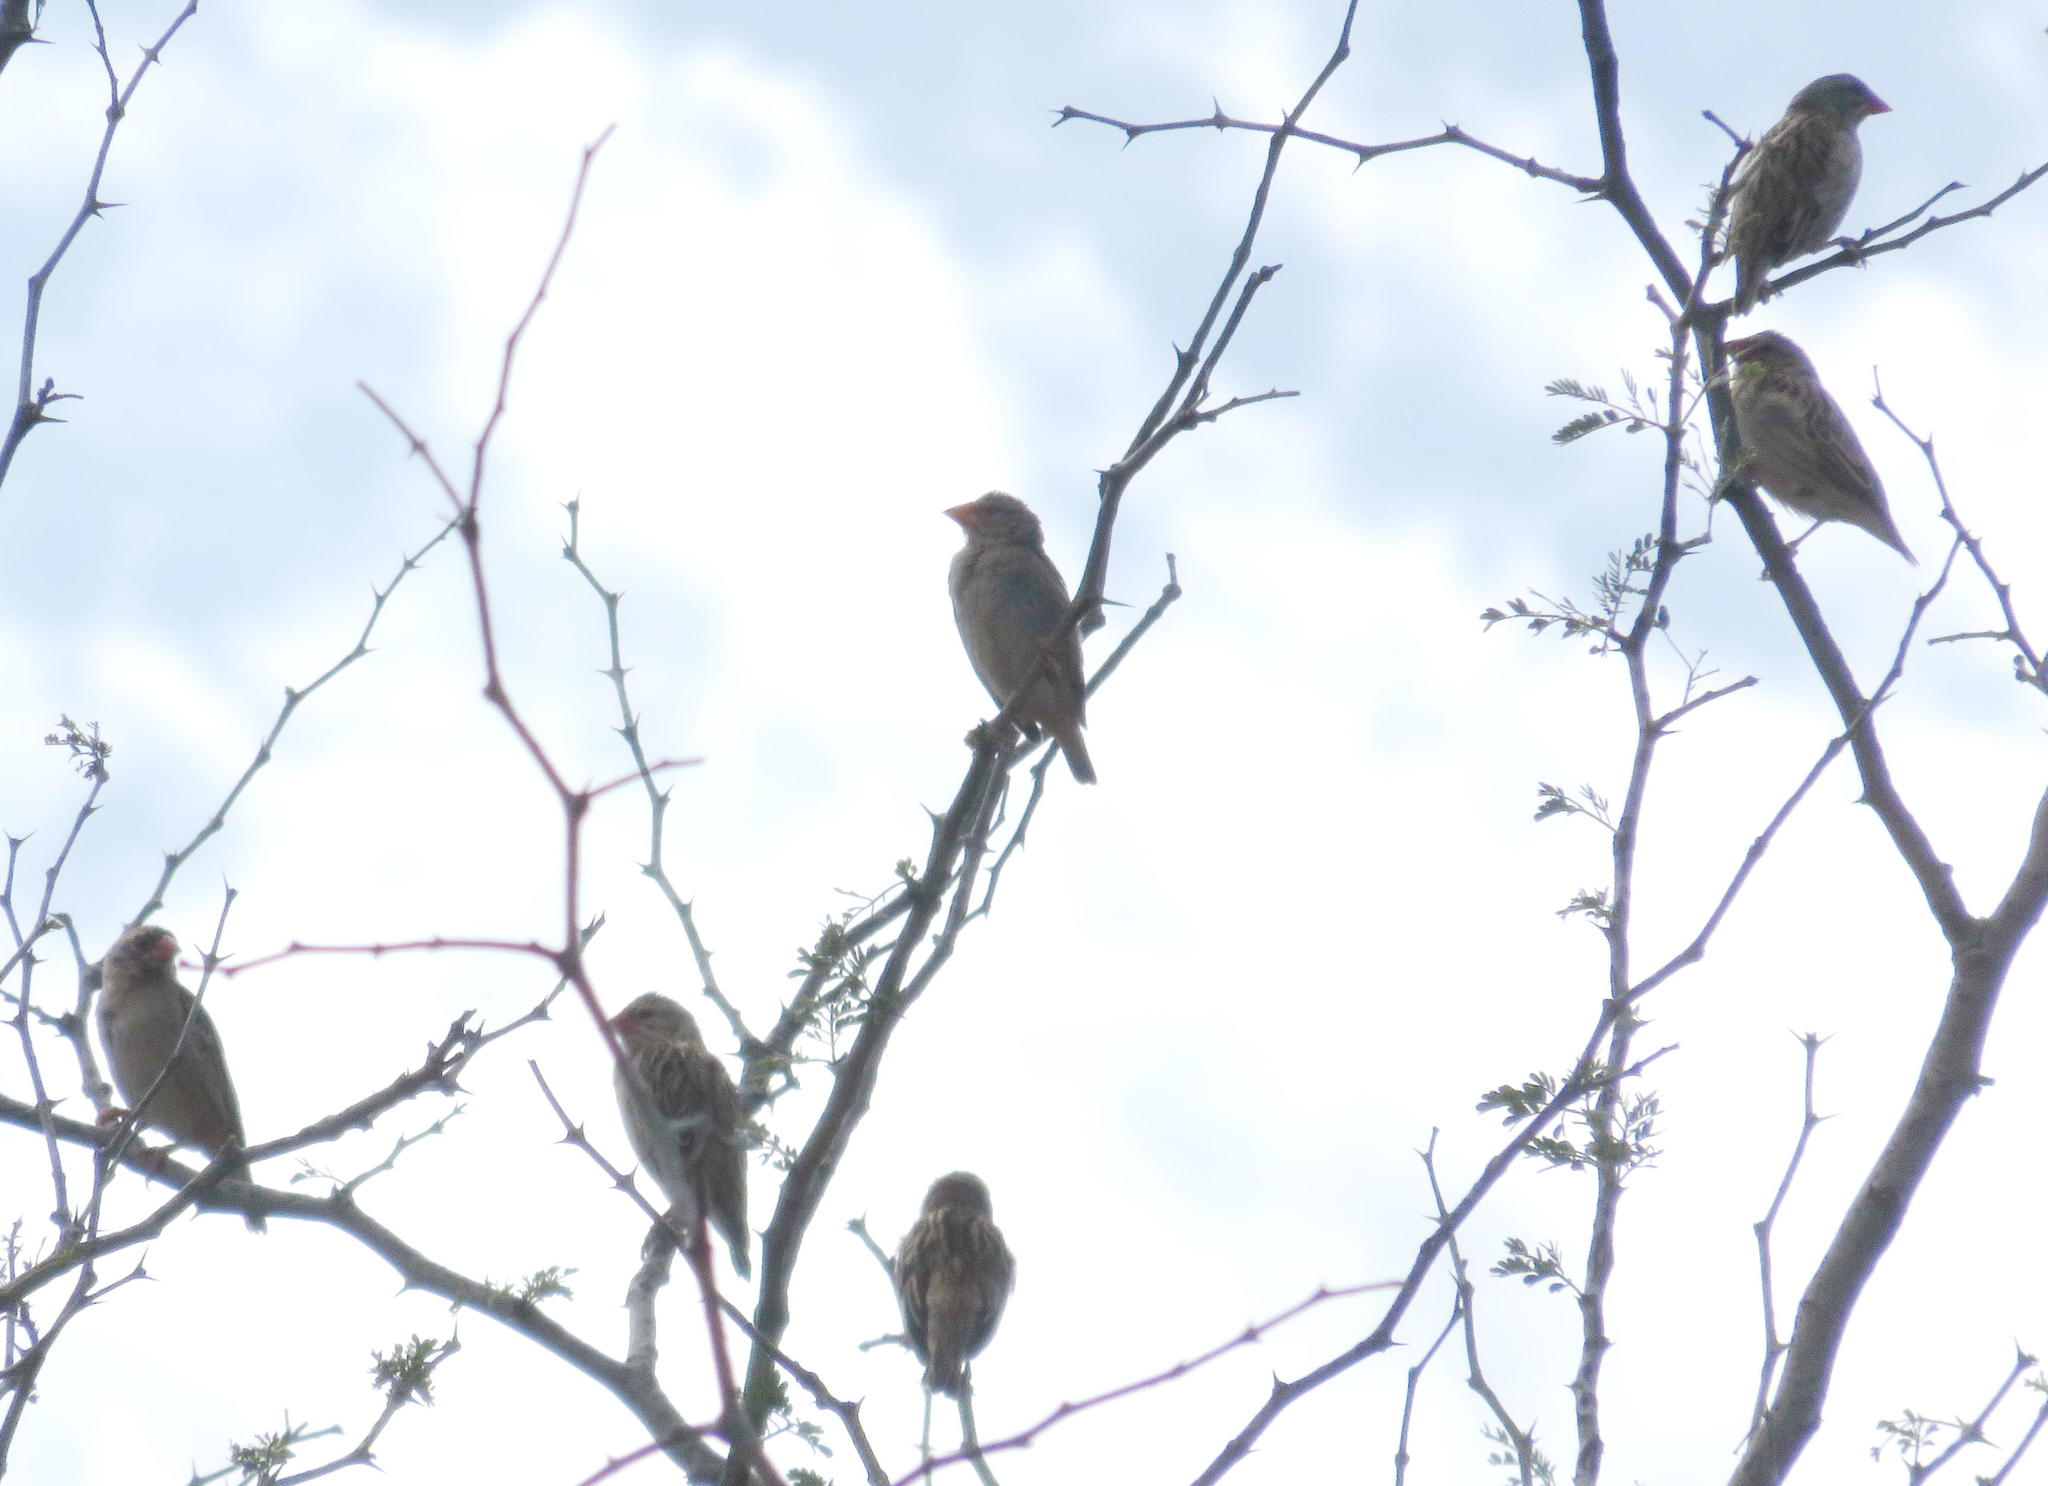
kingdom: Animalia
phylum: Chordata
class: Aves
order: Passeriformes
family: Ploceidae
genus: Quelea
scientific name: Quelea quelea
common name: Red-billed quelea
